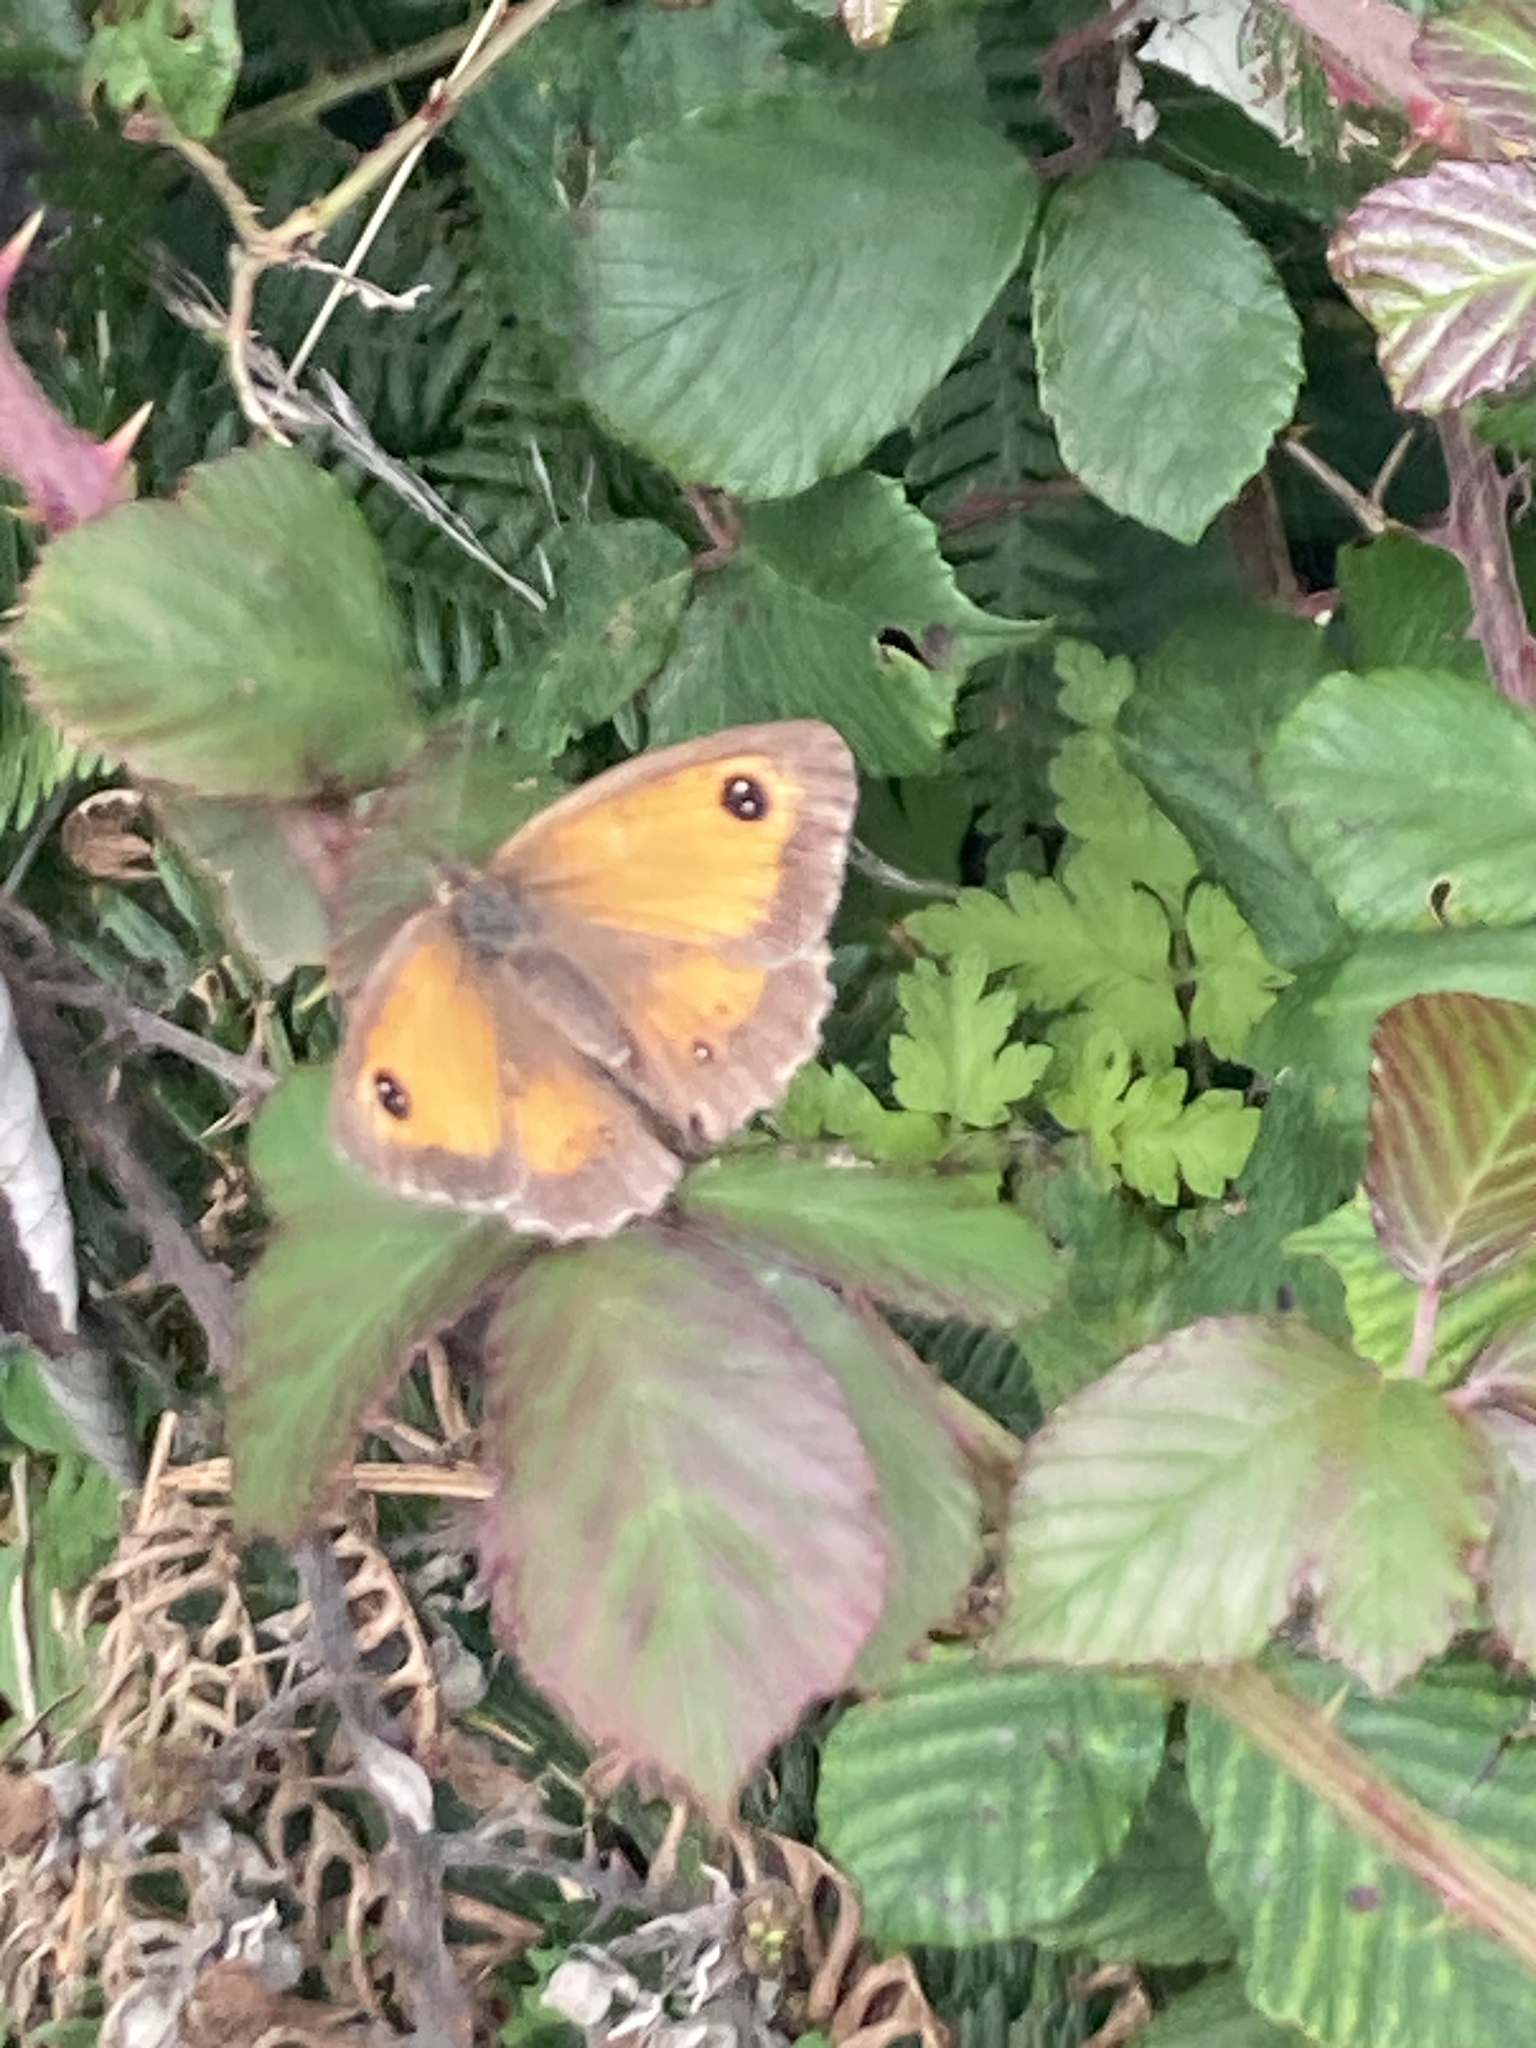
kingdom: Animalia
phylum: Arthropoda
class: Insecta
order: Lepidoptera
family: Nymphalidae
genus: Pyronia
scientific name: Pyronia tithonus
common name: Gatekeeper
